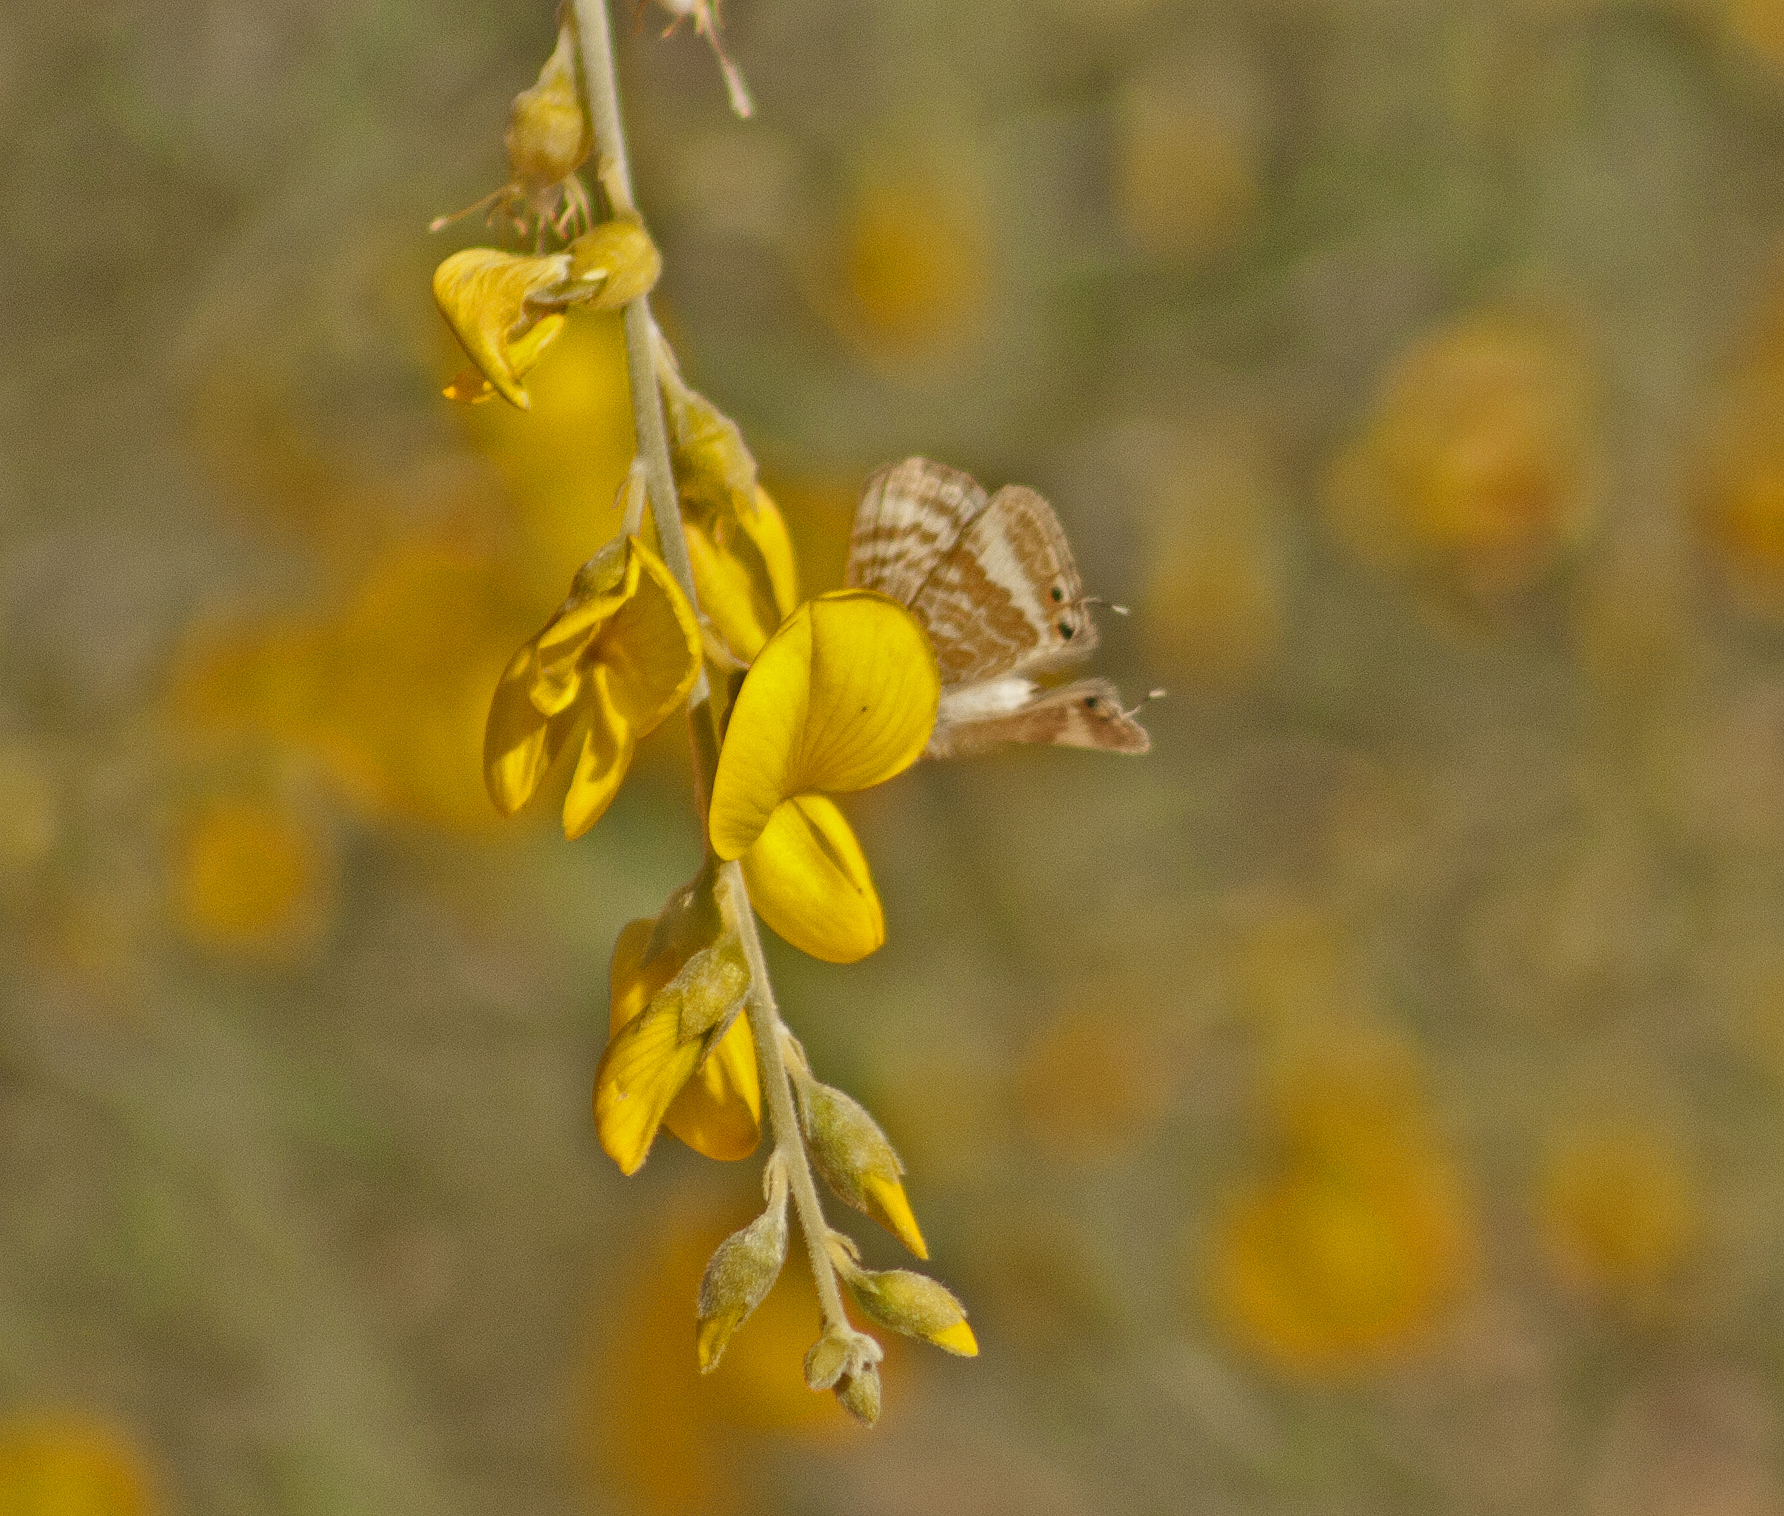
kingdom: Animalia
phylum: Arthropoda
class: Insecta
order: Lepidoptera
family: Lycaenidae
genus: Lampides
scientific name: Lampides boeticus
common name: Long-tailed blue
